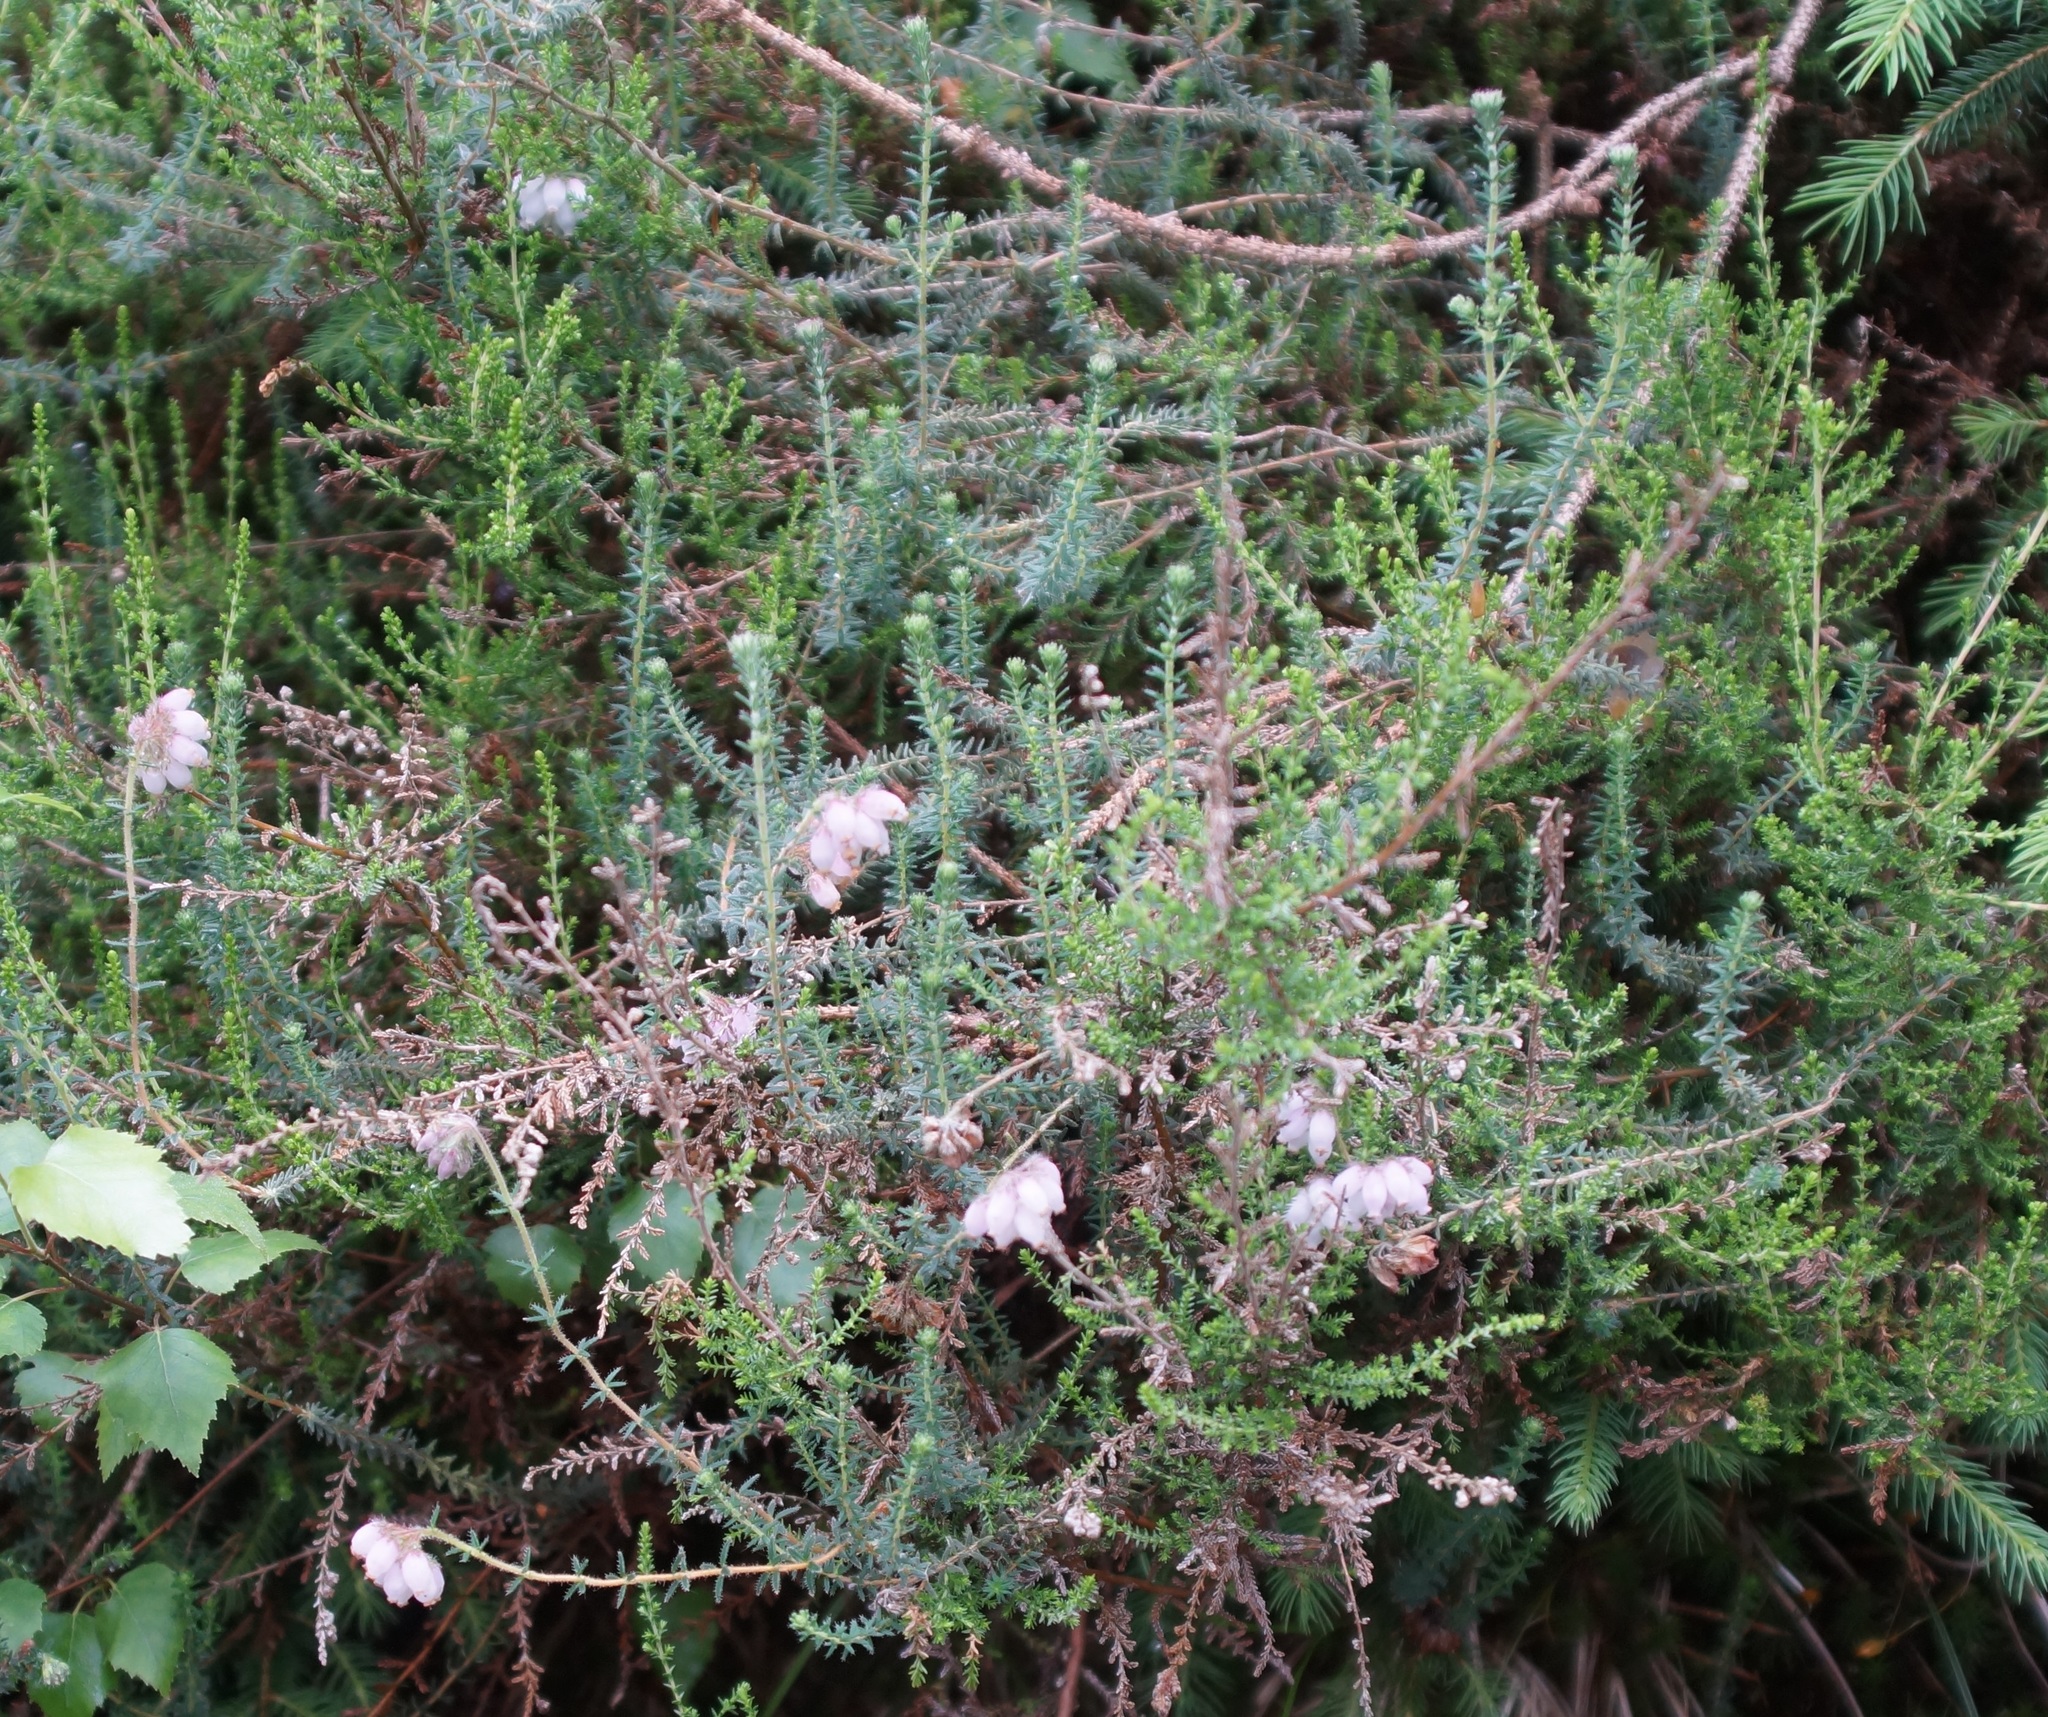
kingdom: Plantae
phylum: Tracheophyta
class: Magnoliopsida
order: Ericales
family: Ericaceae
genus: Erica
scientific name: Erica tetralix
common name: Cross-leaved heath
